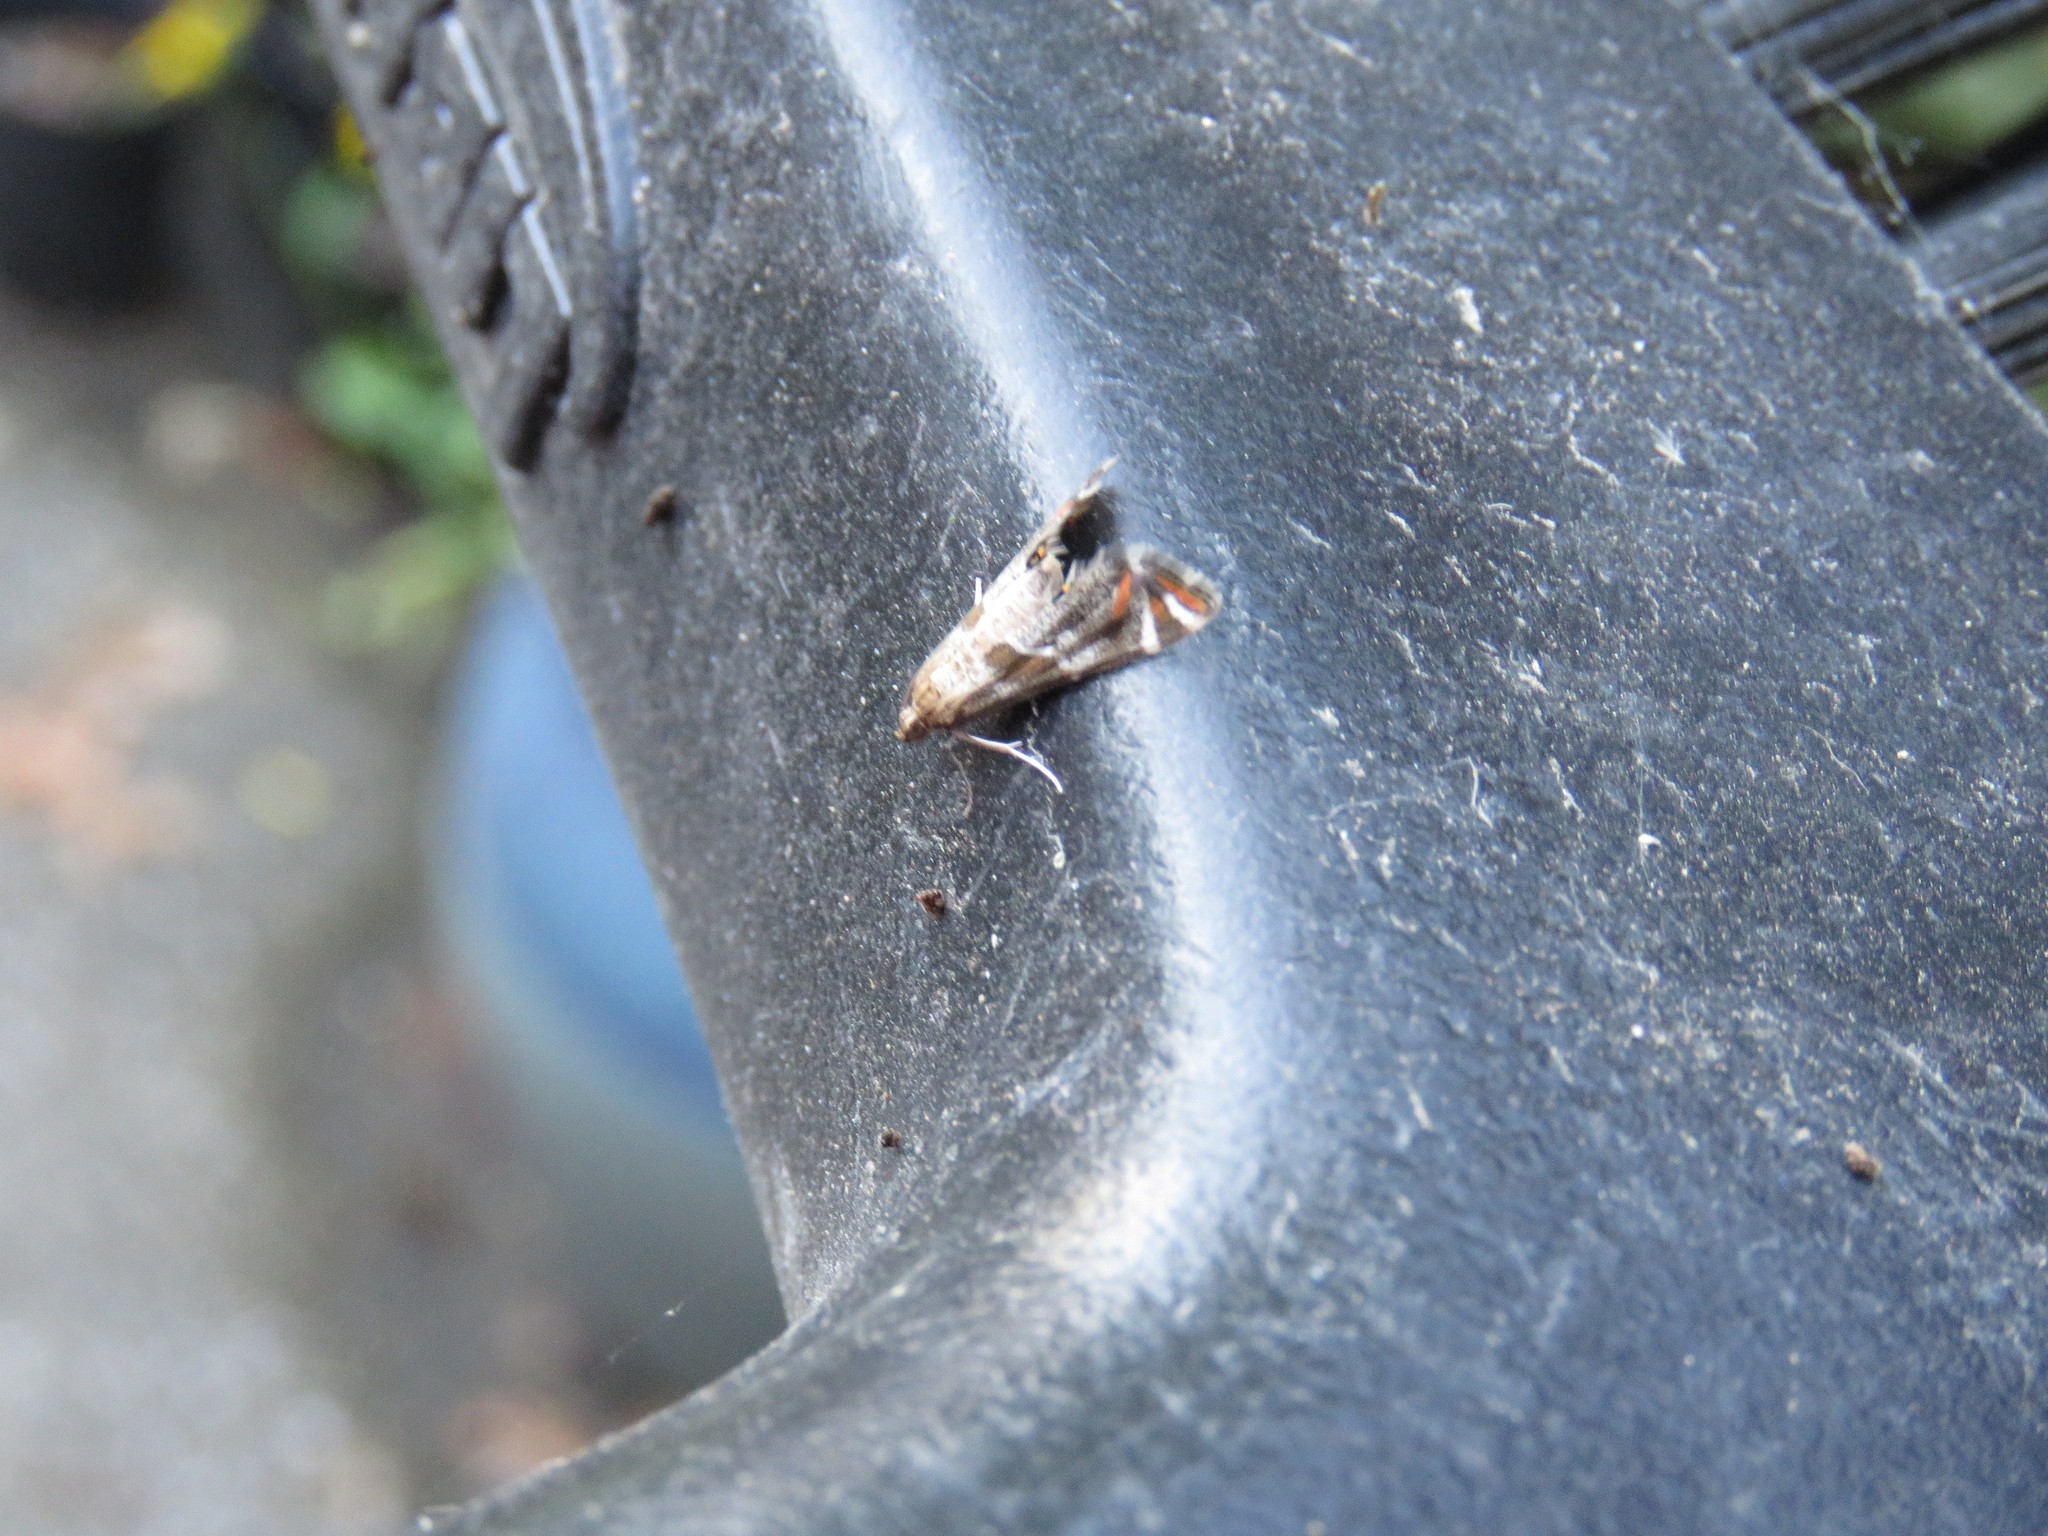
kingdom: Animalia
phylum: Arthropoda
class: Insecta
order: Lepidoptera
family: Crambidae
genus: Petrophila
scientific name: Petrophila jaliscalis
